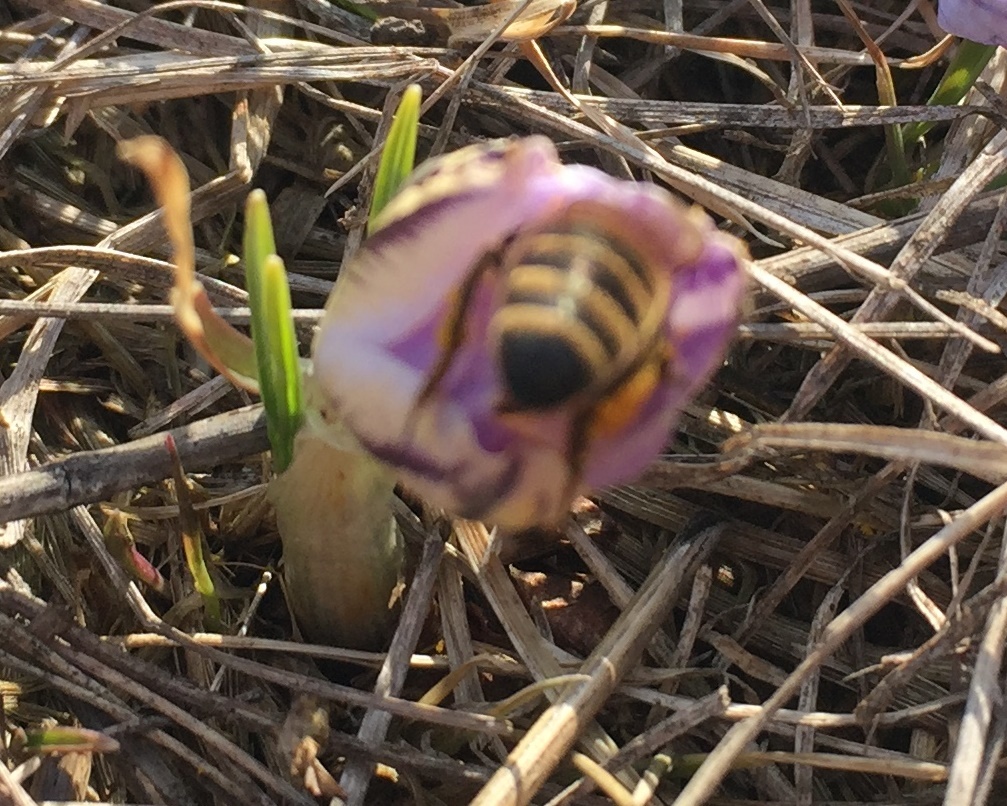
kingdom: Animalia
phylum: Arthropoda
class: Insecta
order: Hymenoptera
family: Apidae
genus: Apis
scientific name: Apis mellifera
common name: Honey bee
